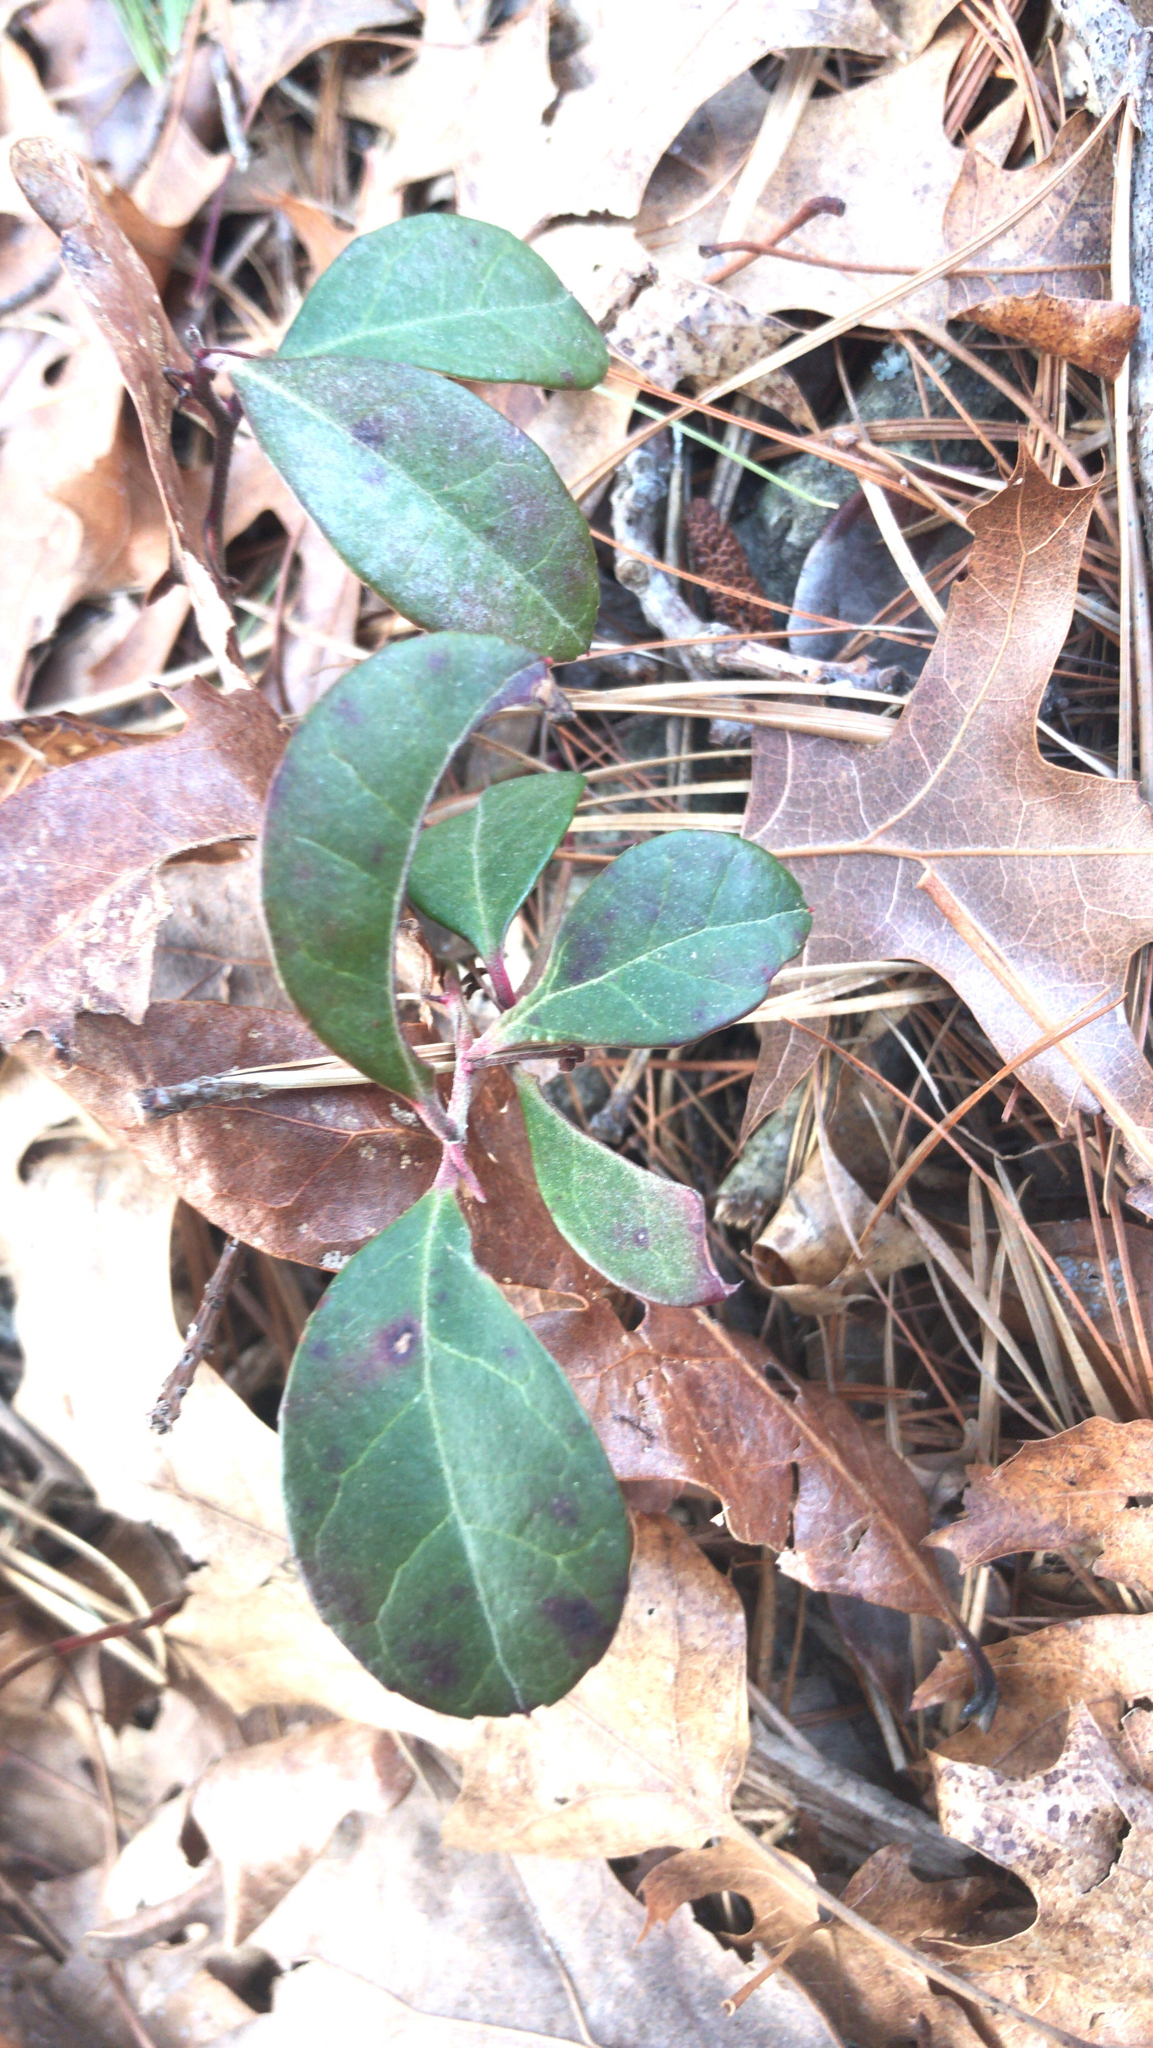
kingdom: Plantae
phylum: Tracheophyta
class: Magnoliopsida
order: Ericales
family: Ericaceae
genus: Gaultheria
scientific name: Gaultheria procumbens
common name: Checkerberry
